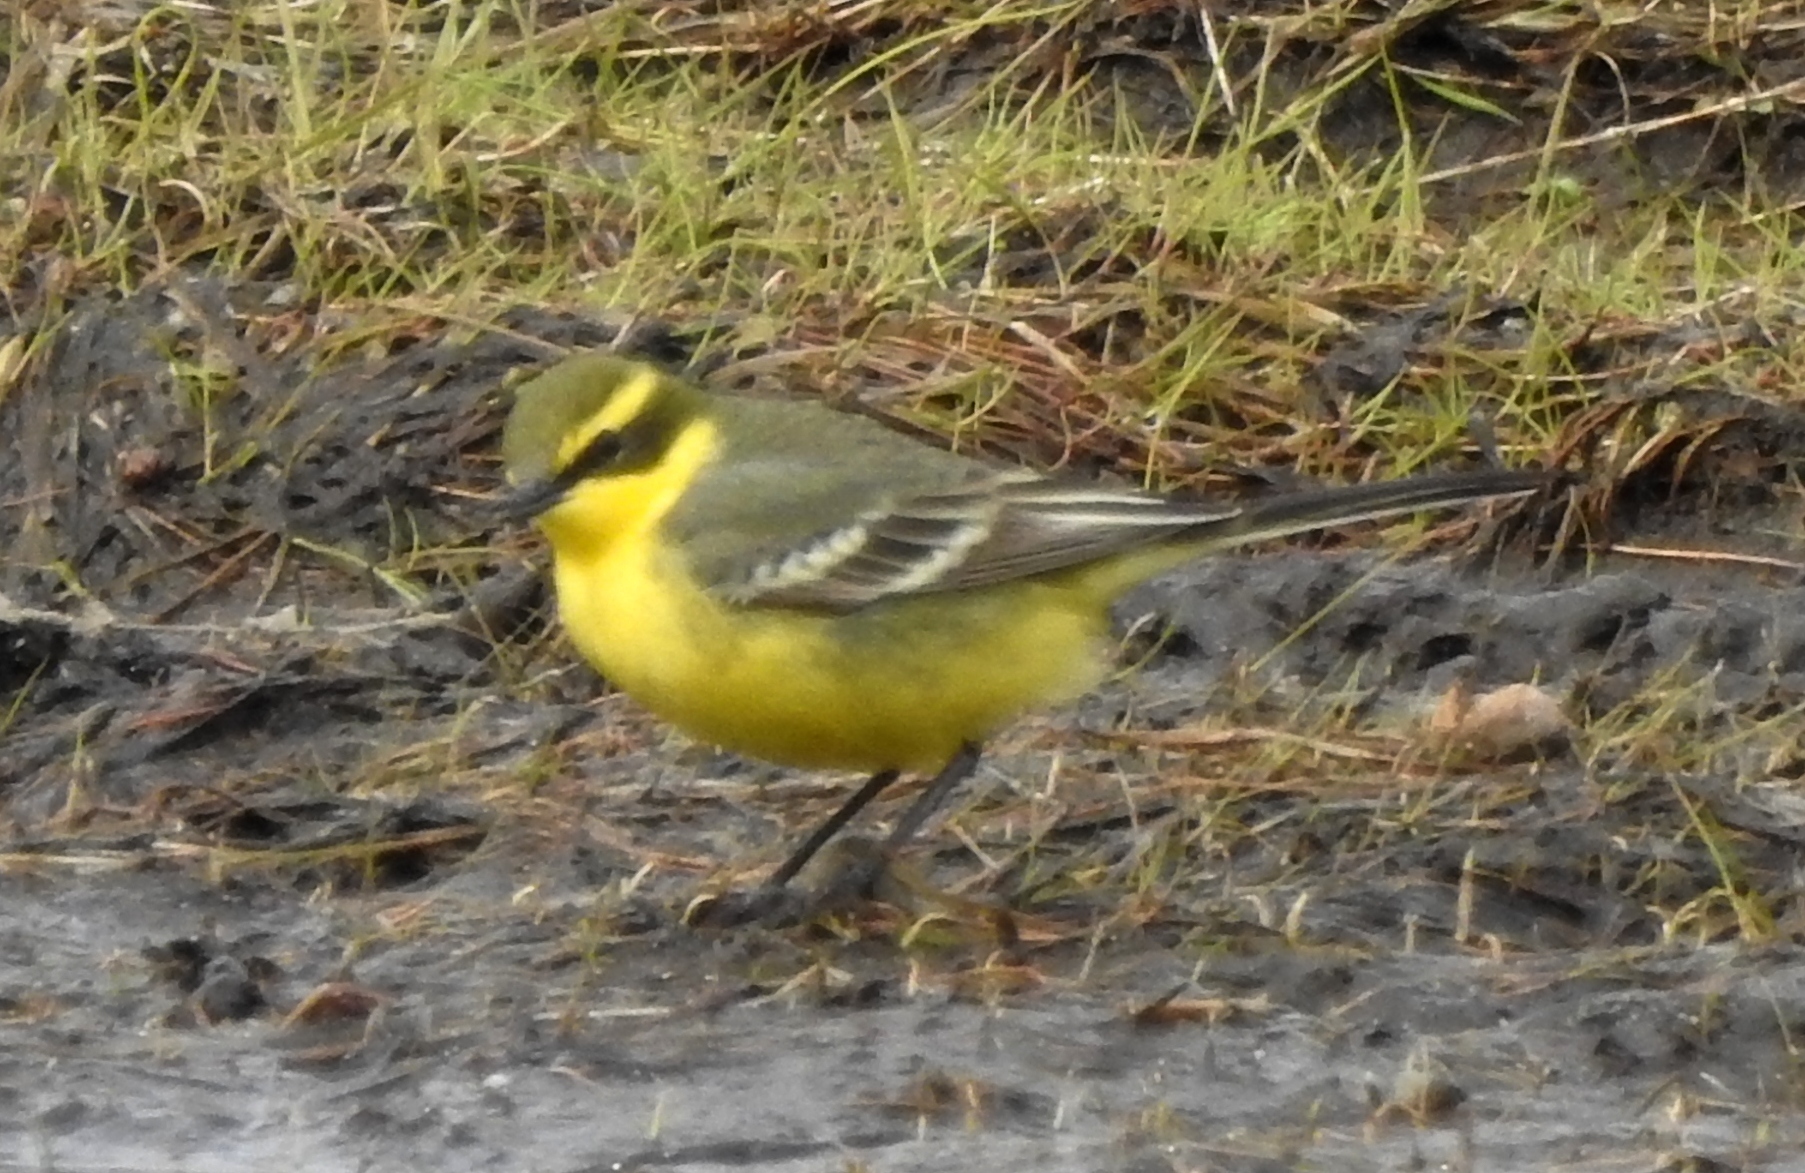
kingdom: Animalia
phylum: Chordata
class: Aves
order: Passeriformes
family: Motacillidae
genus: Motacilla
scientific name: Motacilla tschutschensis
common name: Eastern yellow wagtail
